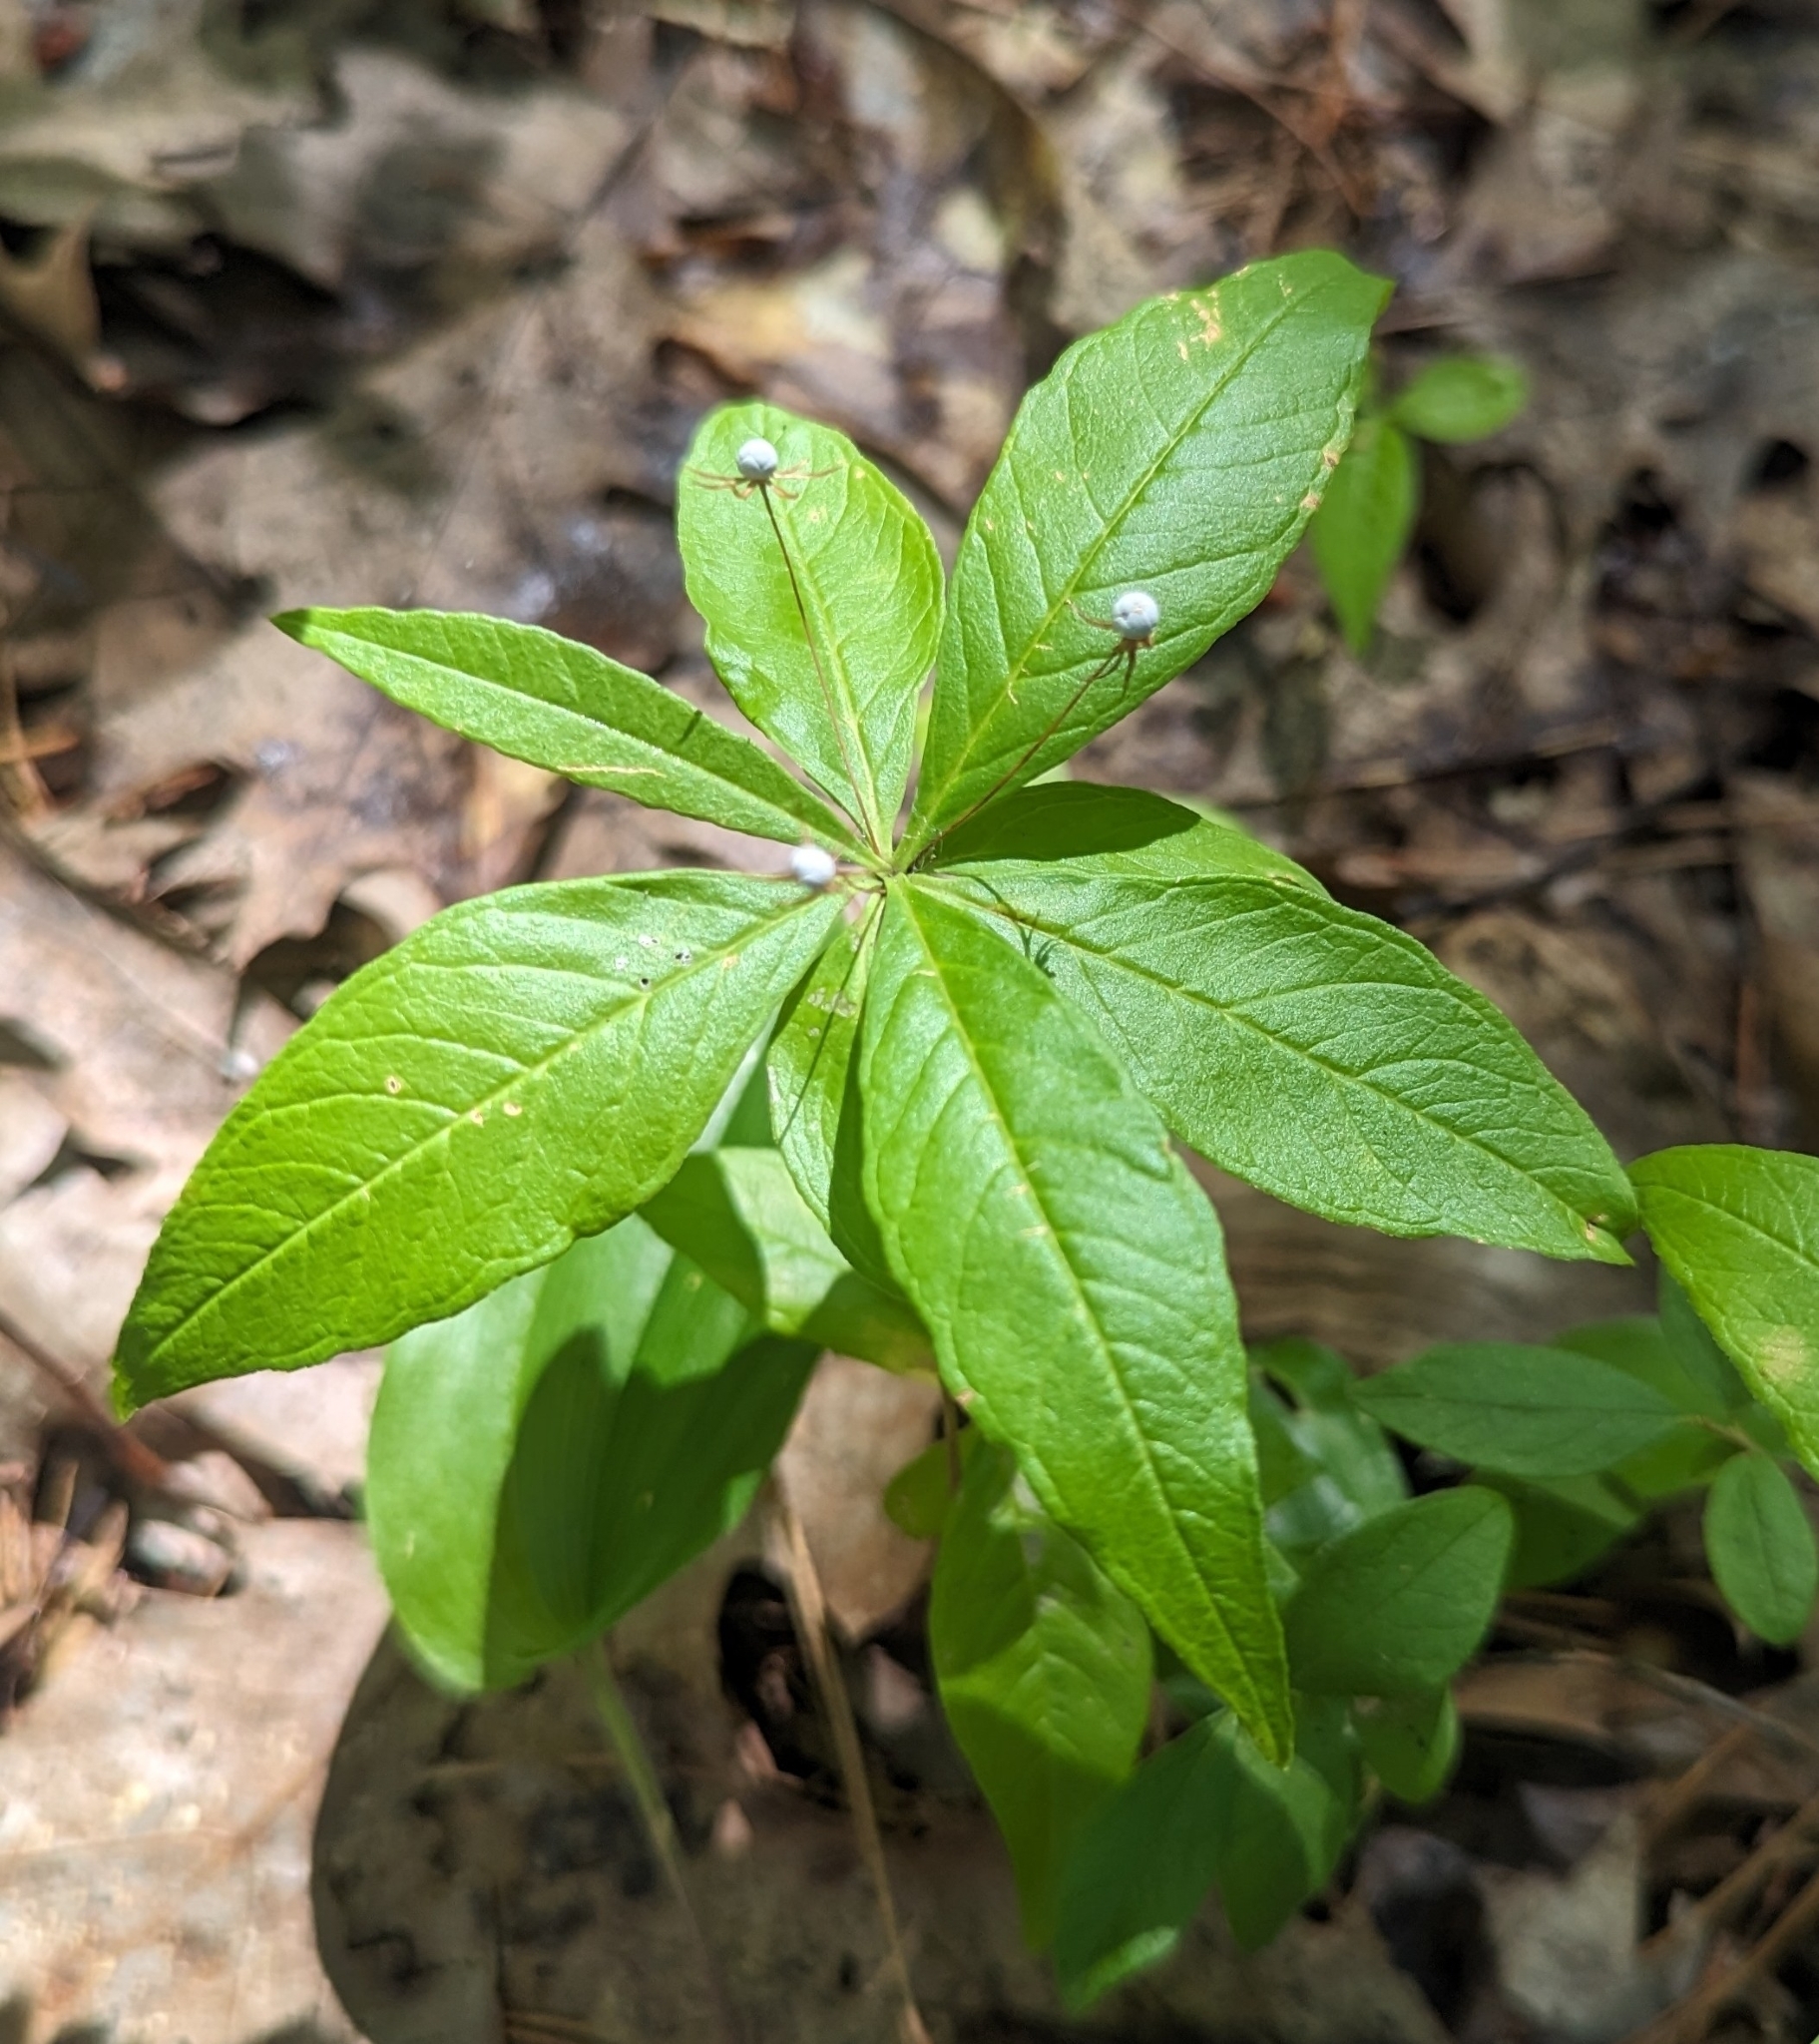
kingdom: Plantae
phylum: Tracheophyta
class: Magnoliopsida
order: Ericales
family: Primulaceae
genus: Lysimachia
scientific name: Lysimachia borealis
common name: American starflower
